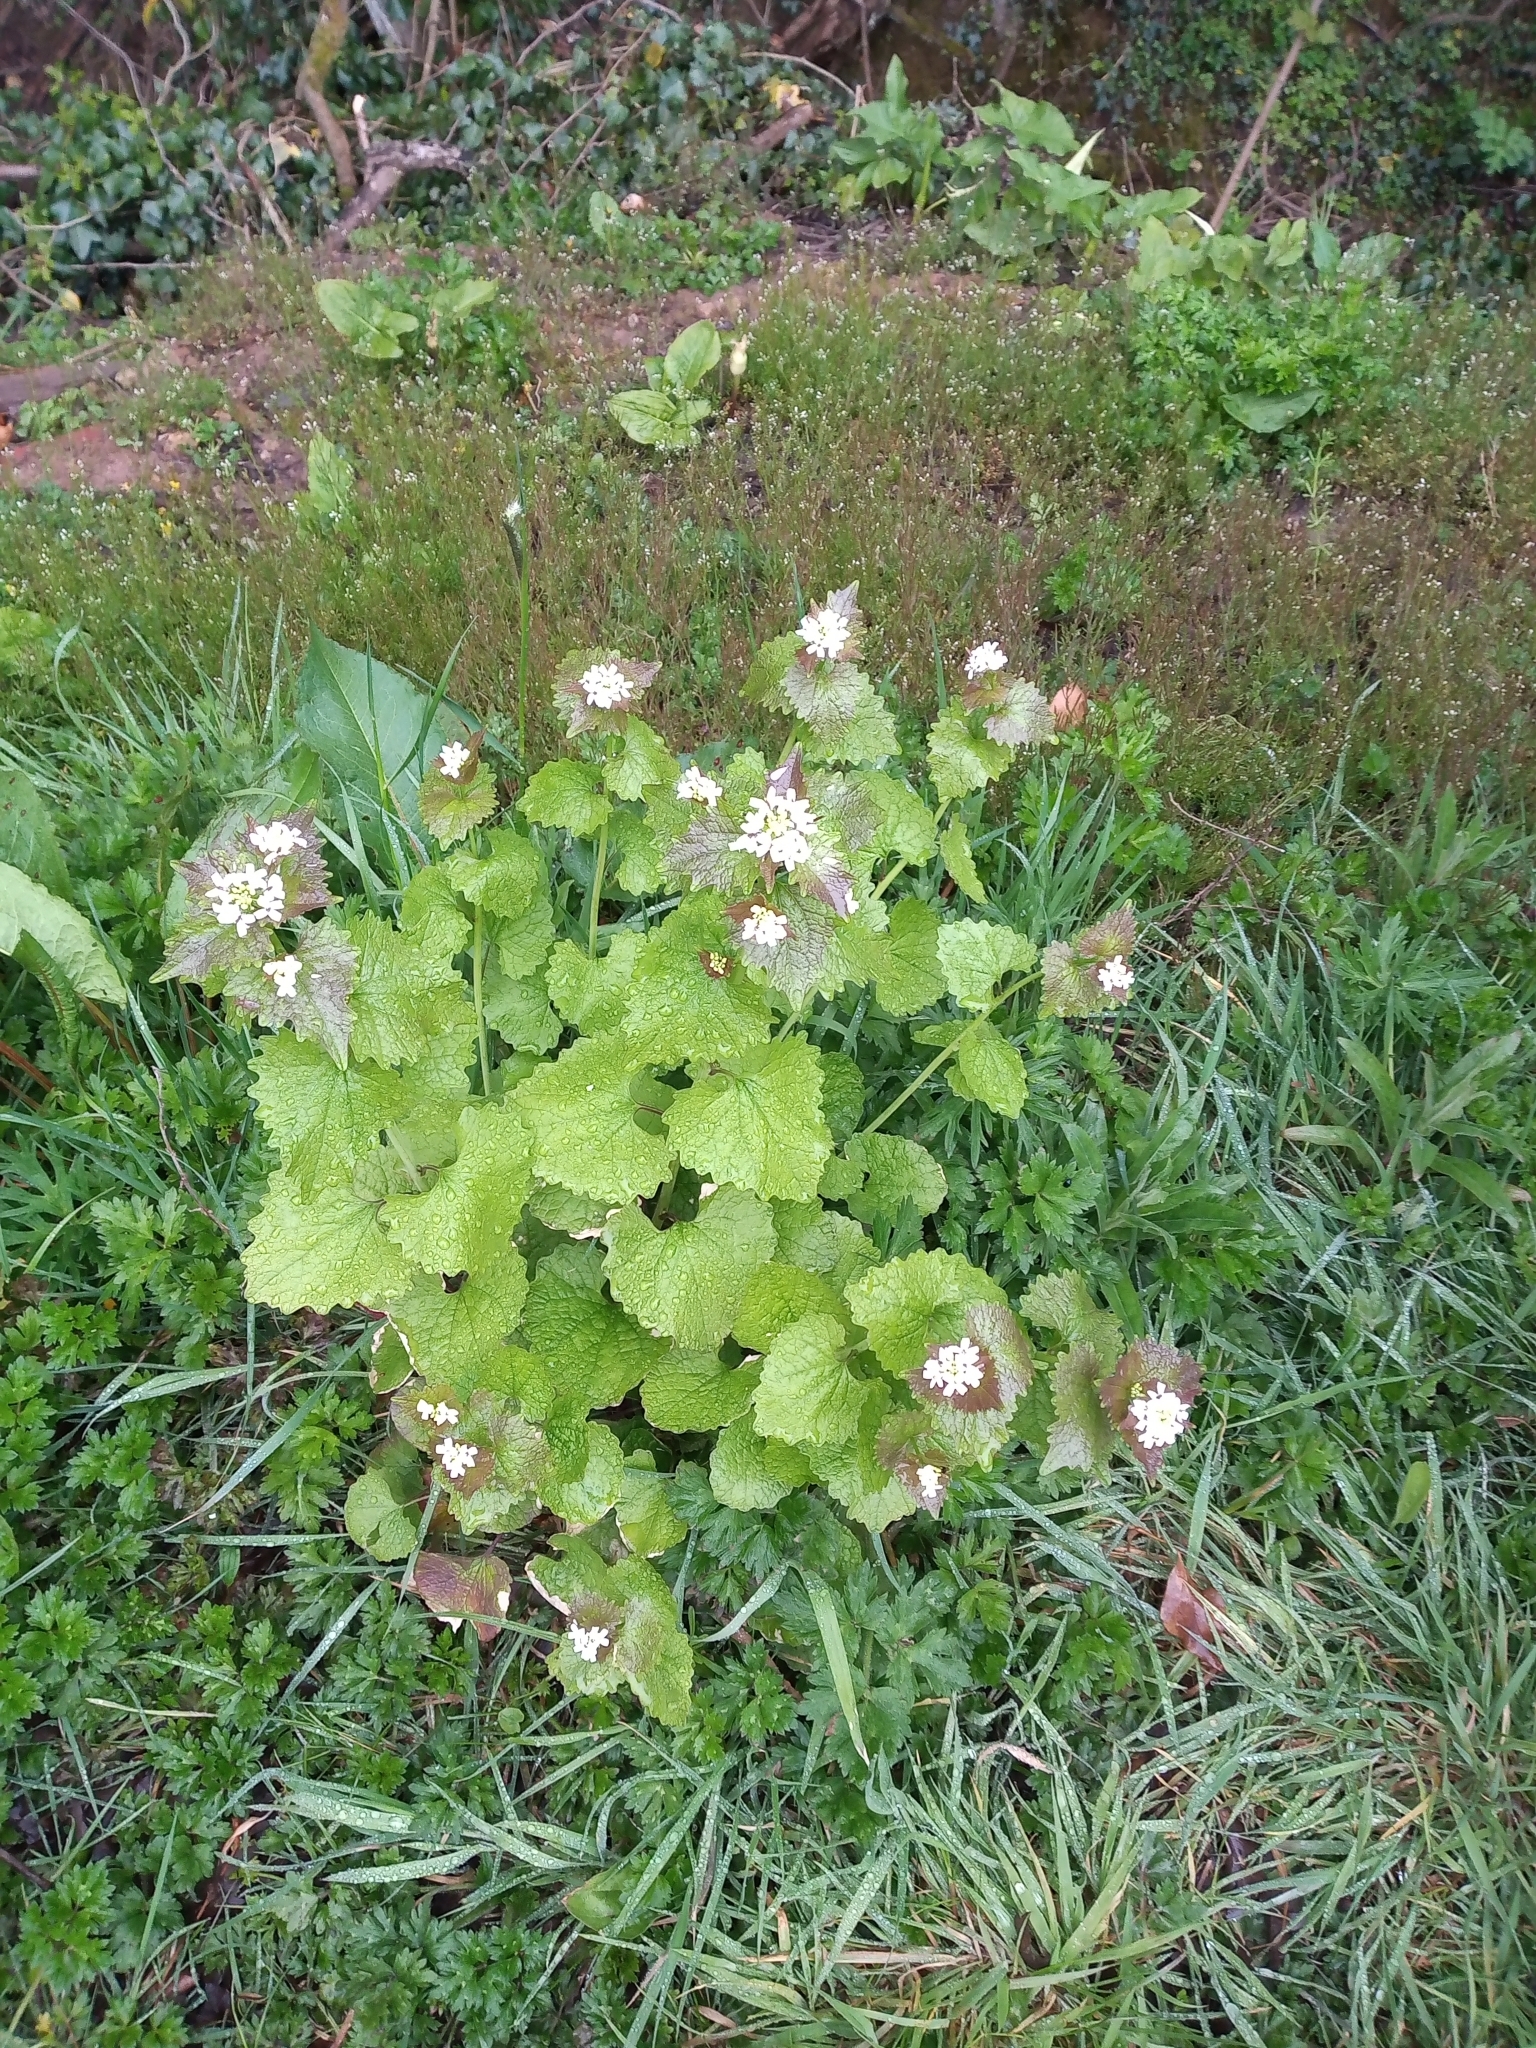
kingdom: Plantae
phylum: Tracheophyta
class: Magnoliopsida
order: Brassicales
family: Brassicaceae
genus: Alliaria
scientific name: Alliaria petiolata
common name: Garlic mustard
